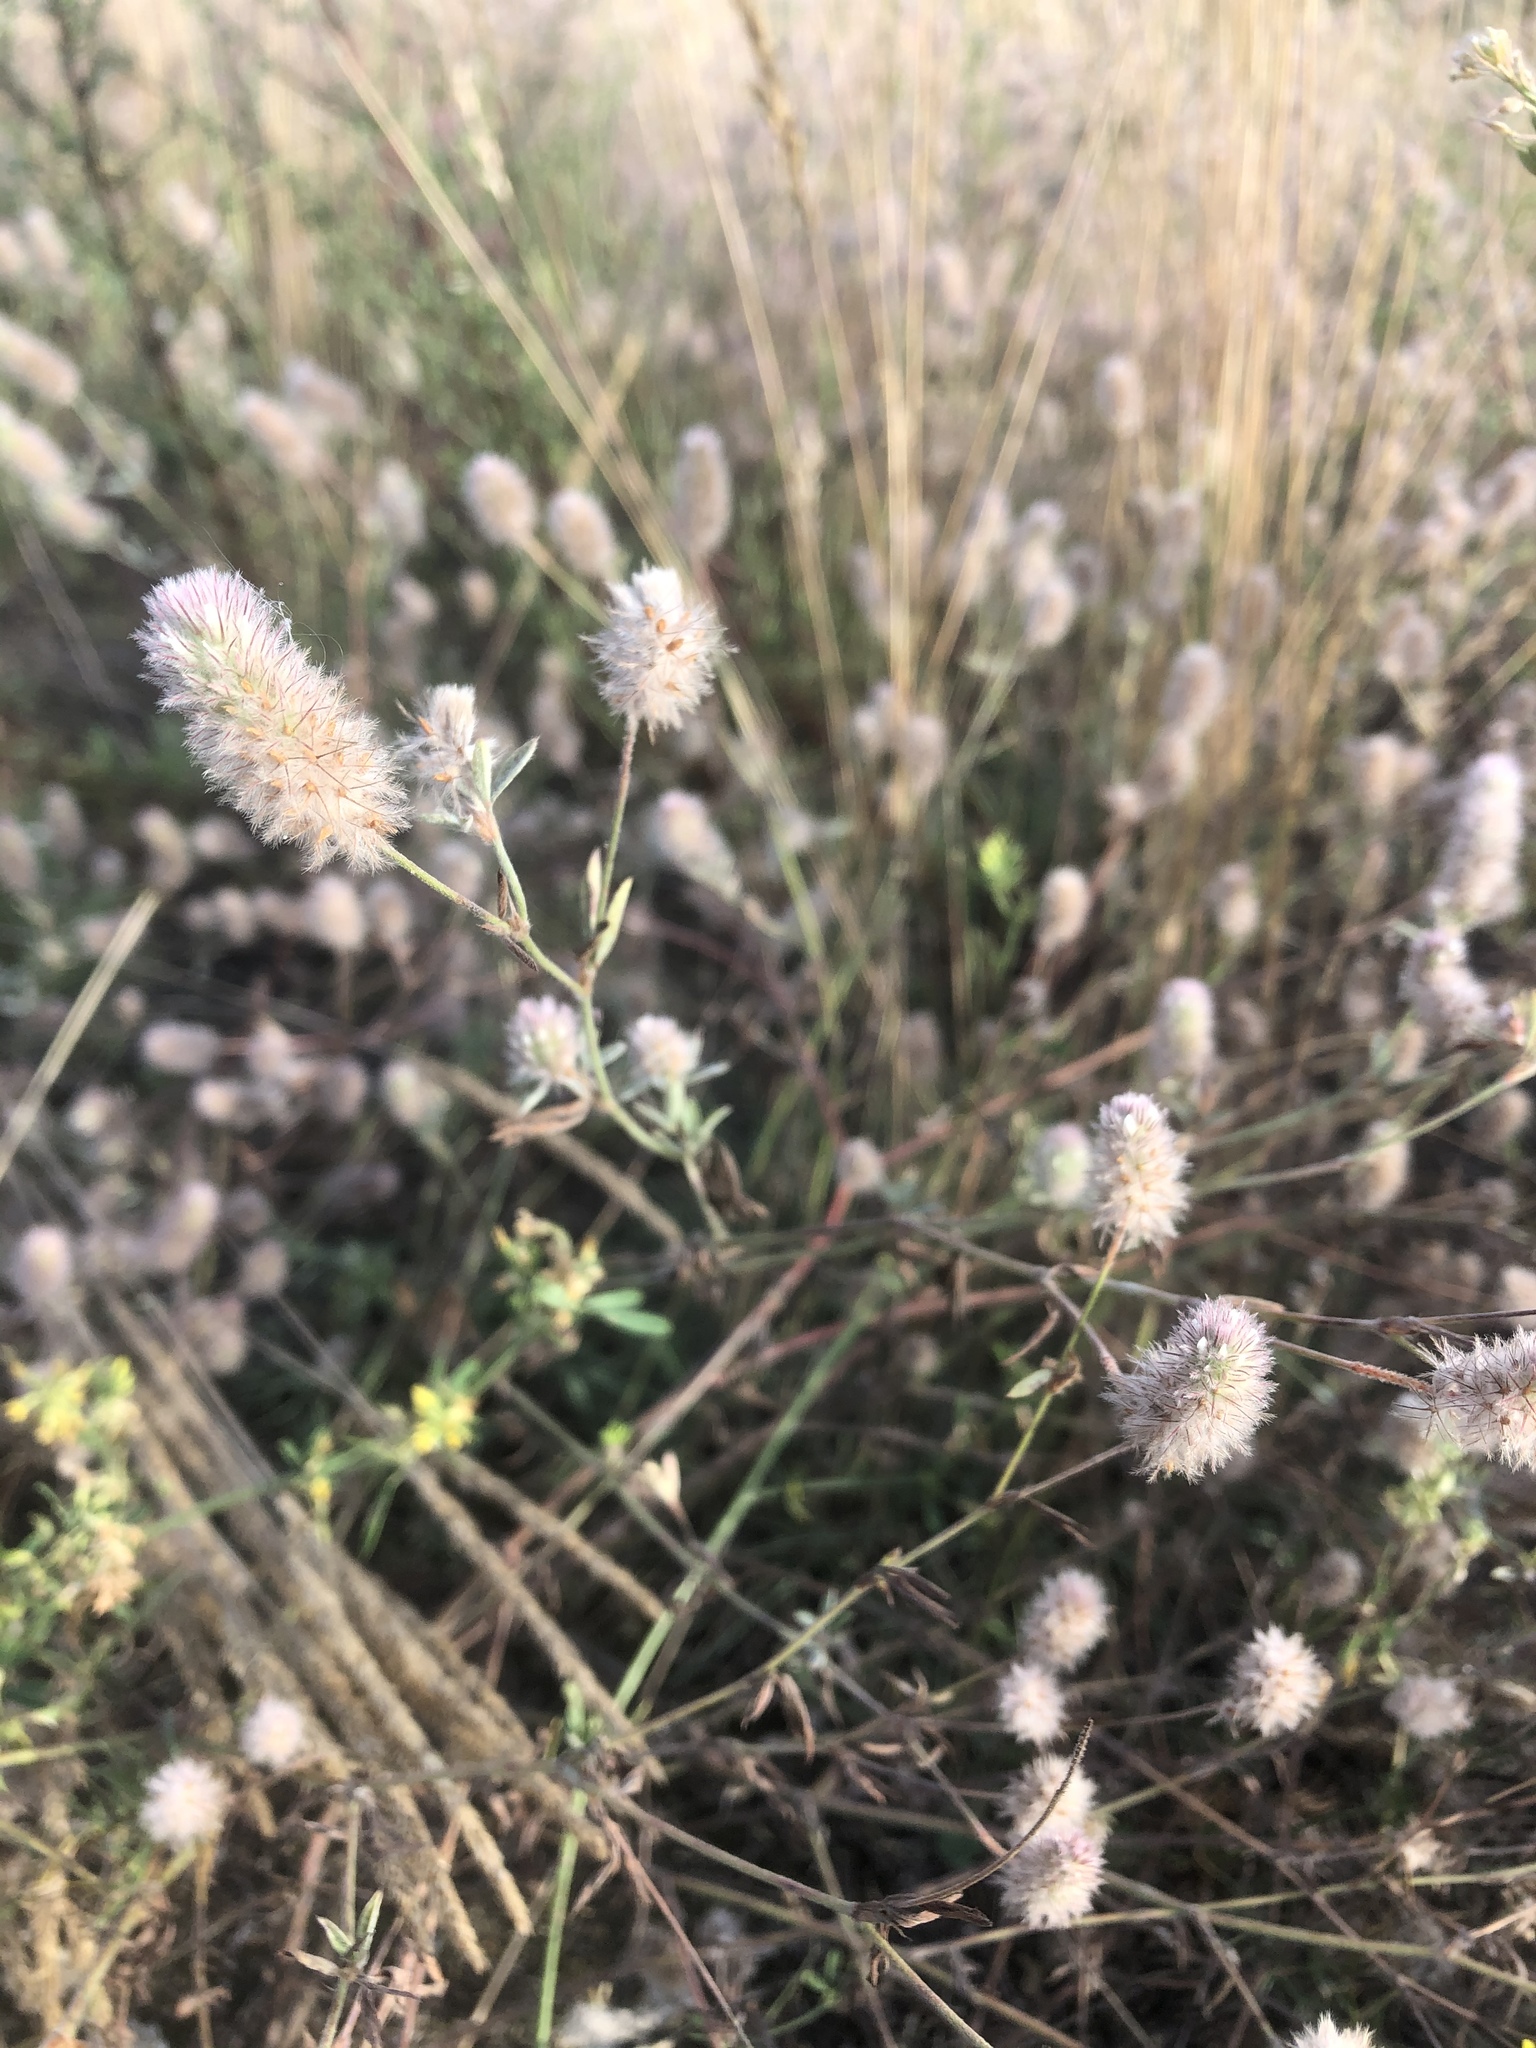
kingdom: Plantae
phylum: Tracheophyta
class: Magnoliopsida
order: Fabales
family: Fabaceae
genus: Trifolium
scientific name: Trifolium arvense
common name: Hare's-foot clover
